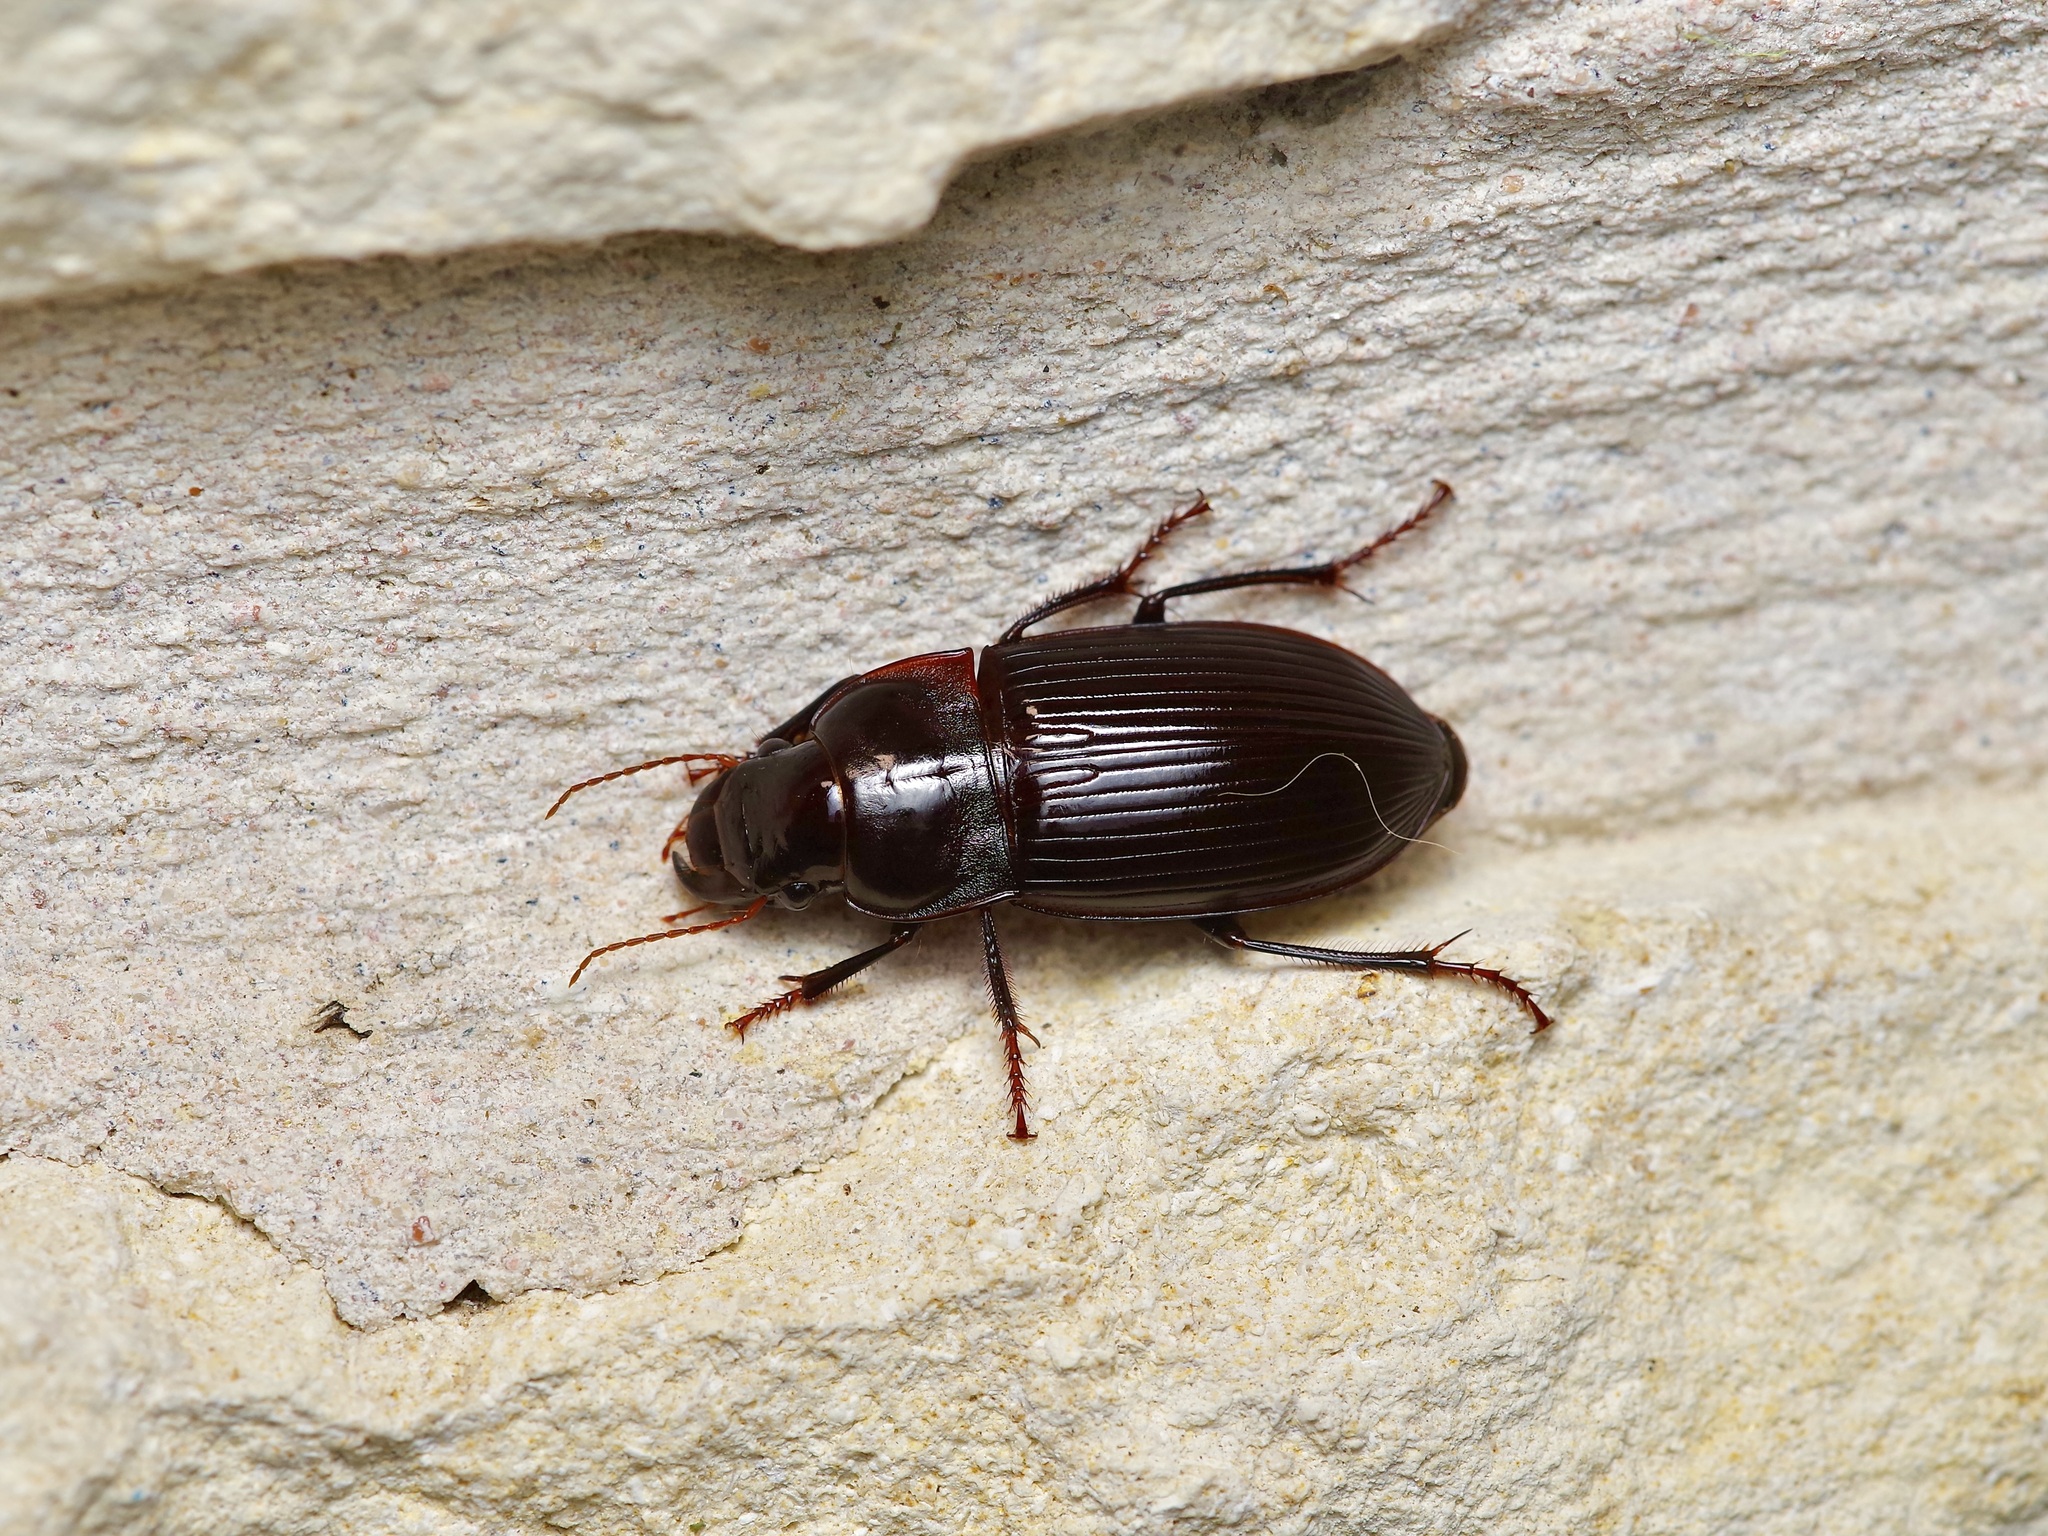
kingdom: Animalia
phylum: Arthropoda
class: Insecta
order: Coleoptera
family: Carabidae
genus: Harpalus
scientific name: Harpalus caliginosus
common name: Murky ground beetle
